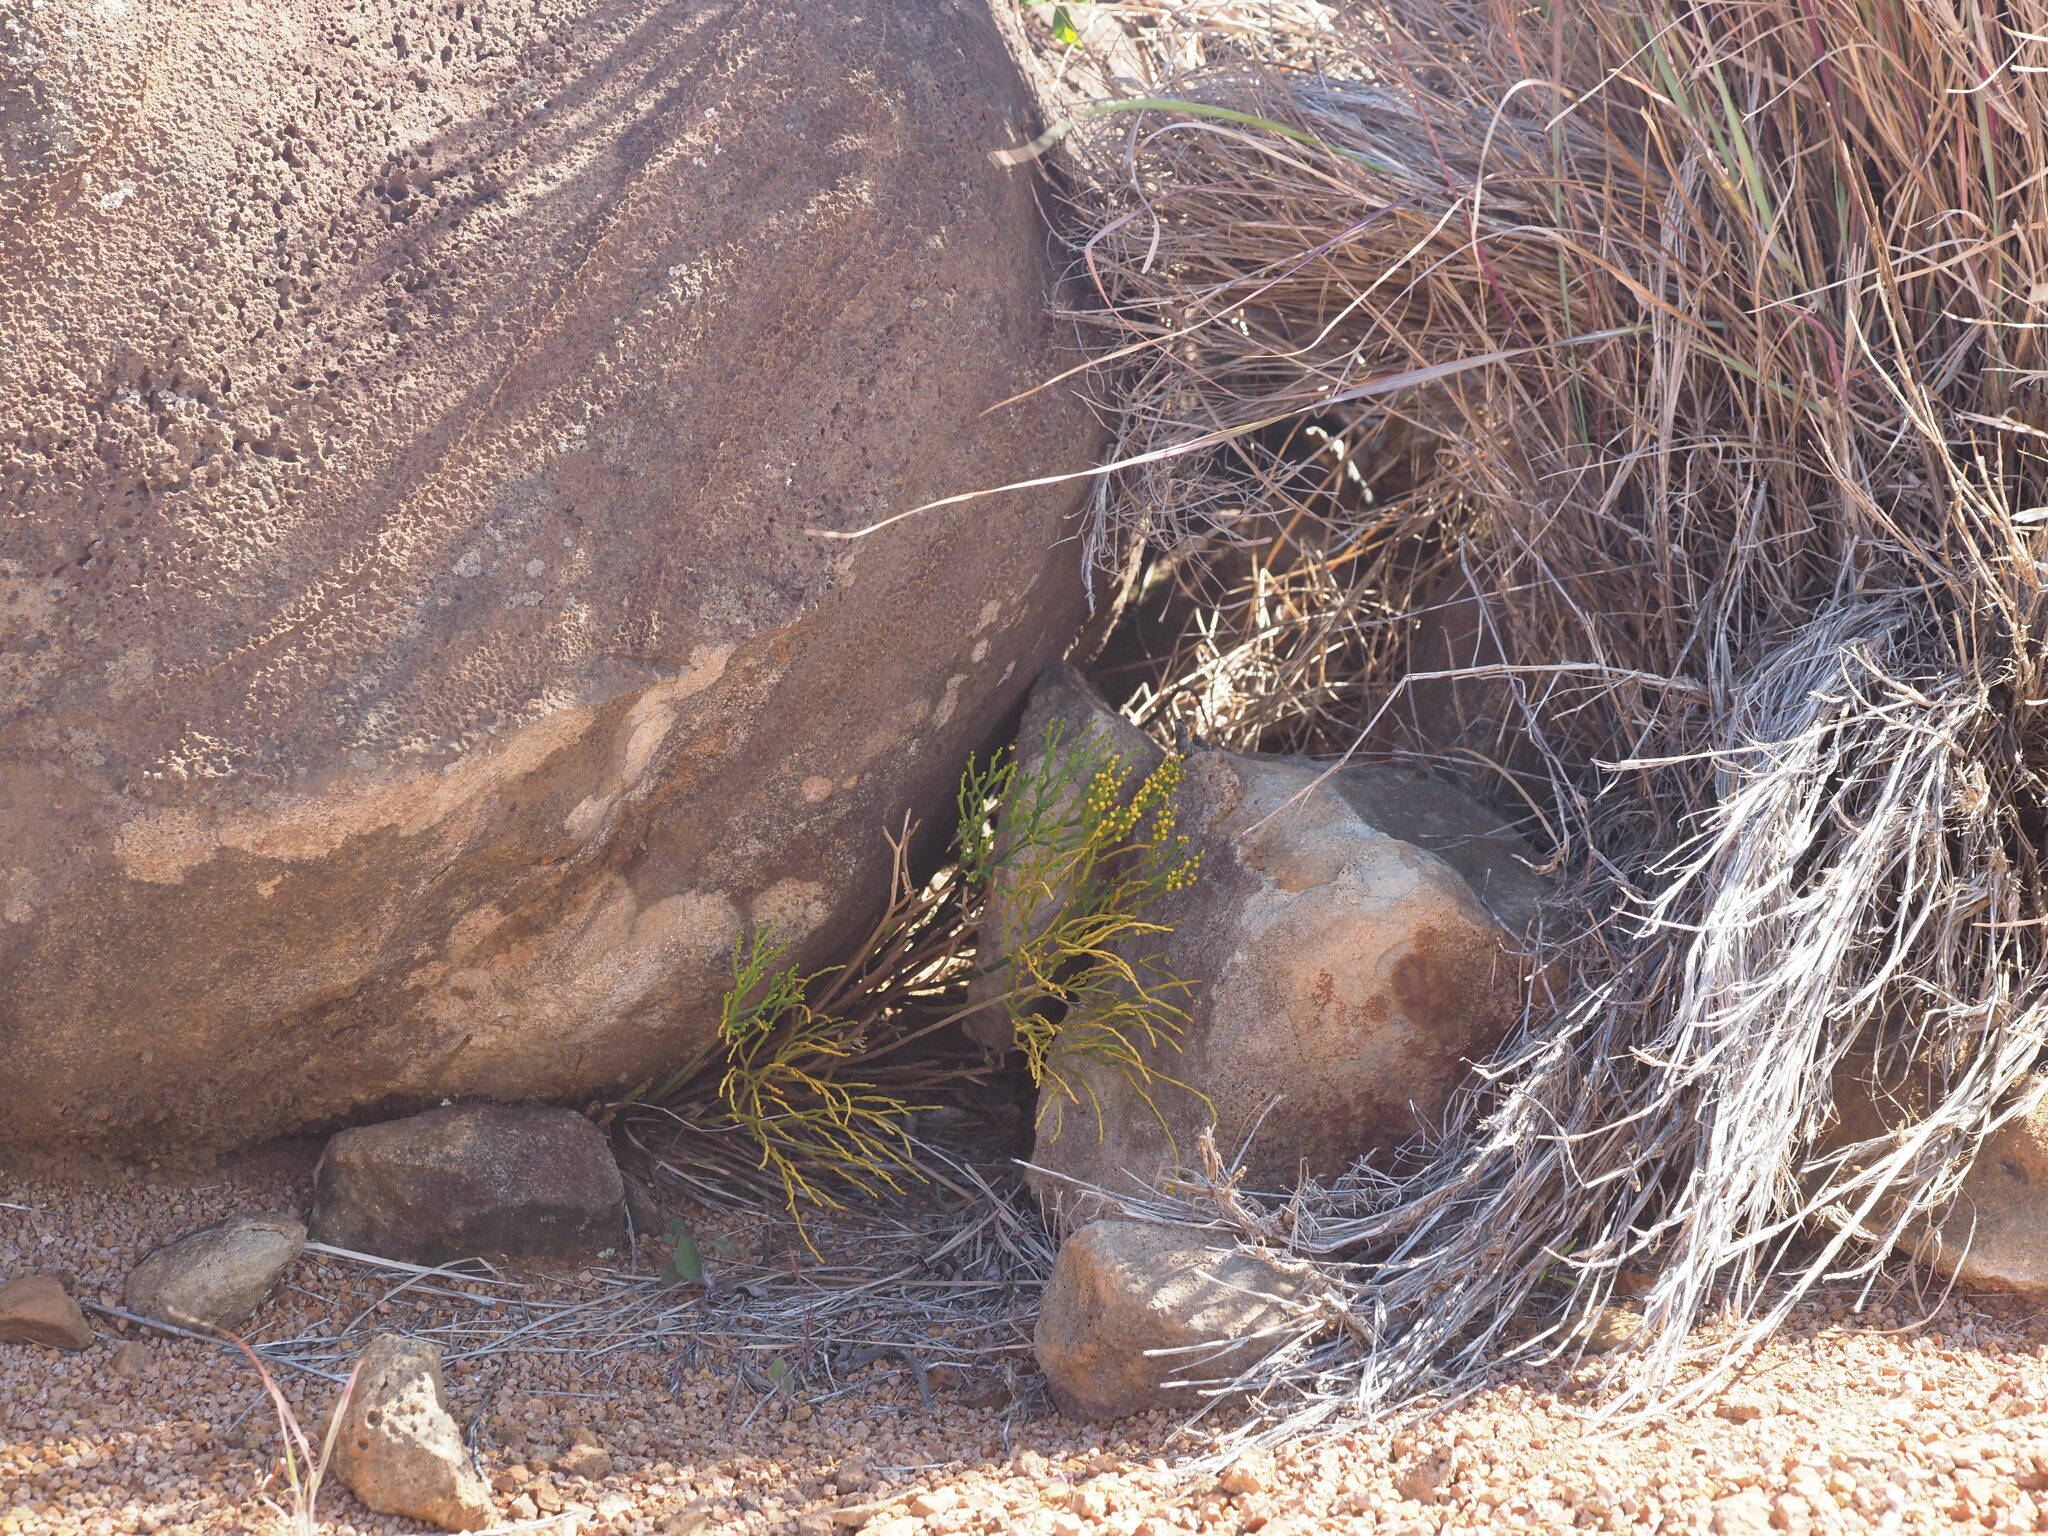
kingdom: Plantae
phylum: Tracheophyta
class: Polypodiopsida
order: Psilotales
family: Psilotaceae
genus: Psilotum
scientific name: Psilotum nudum
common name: Skeleton fork fern
